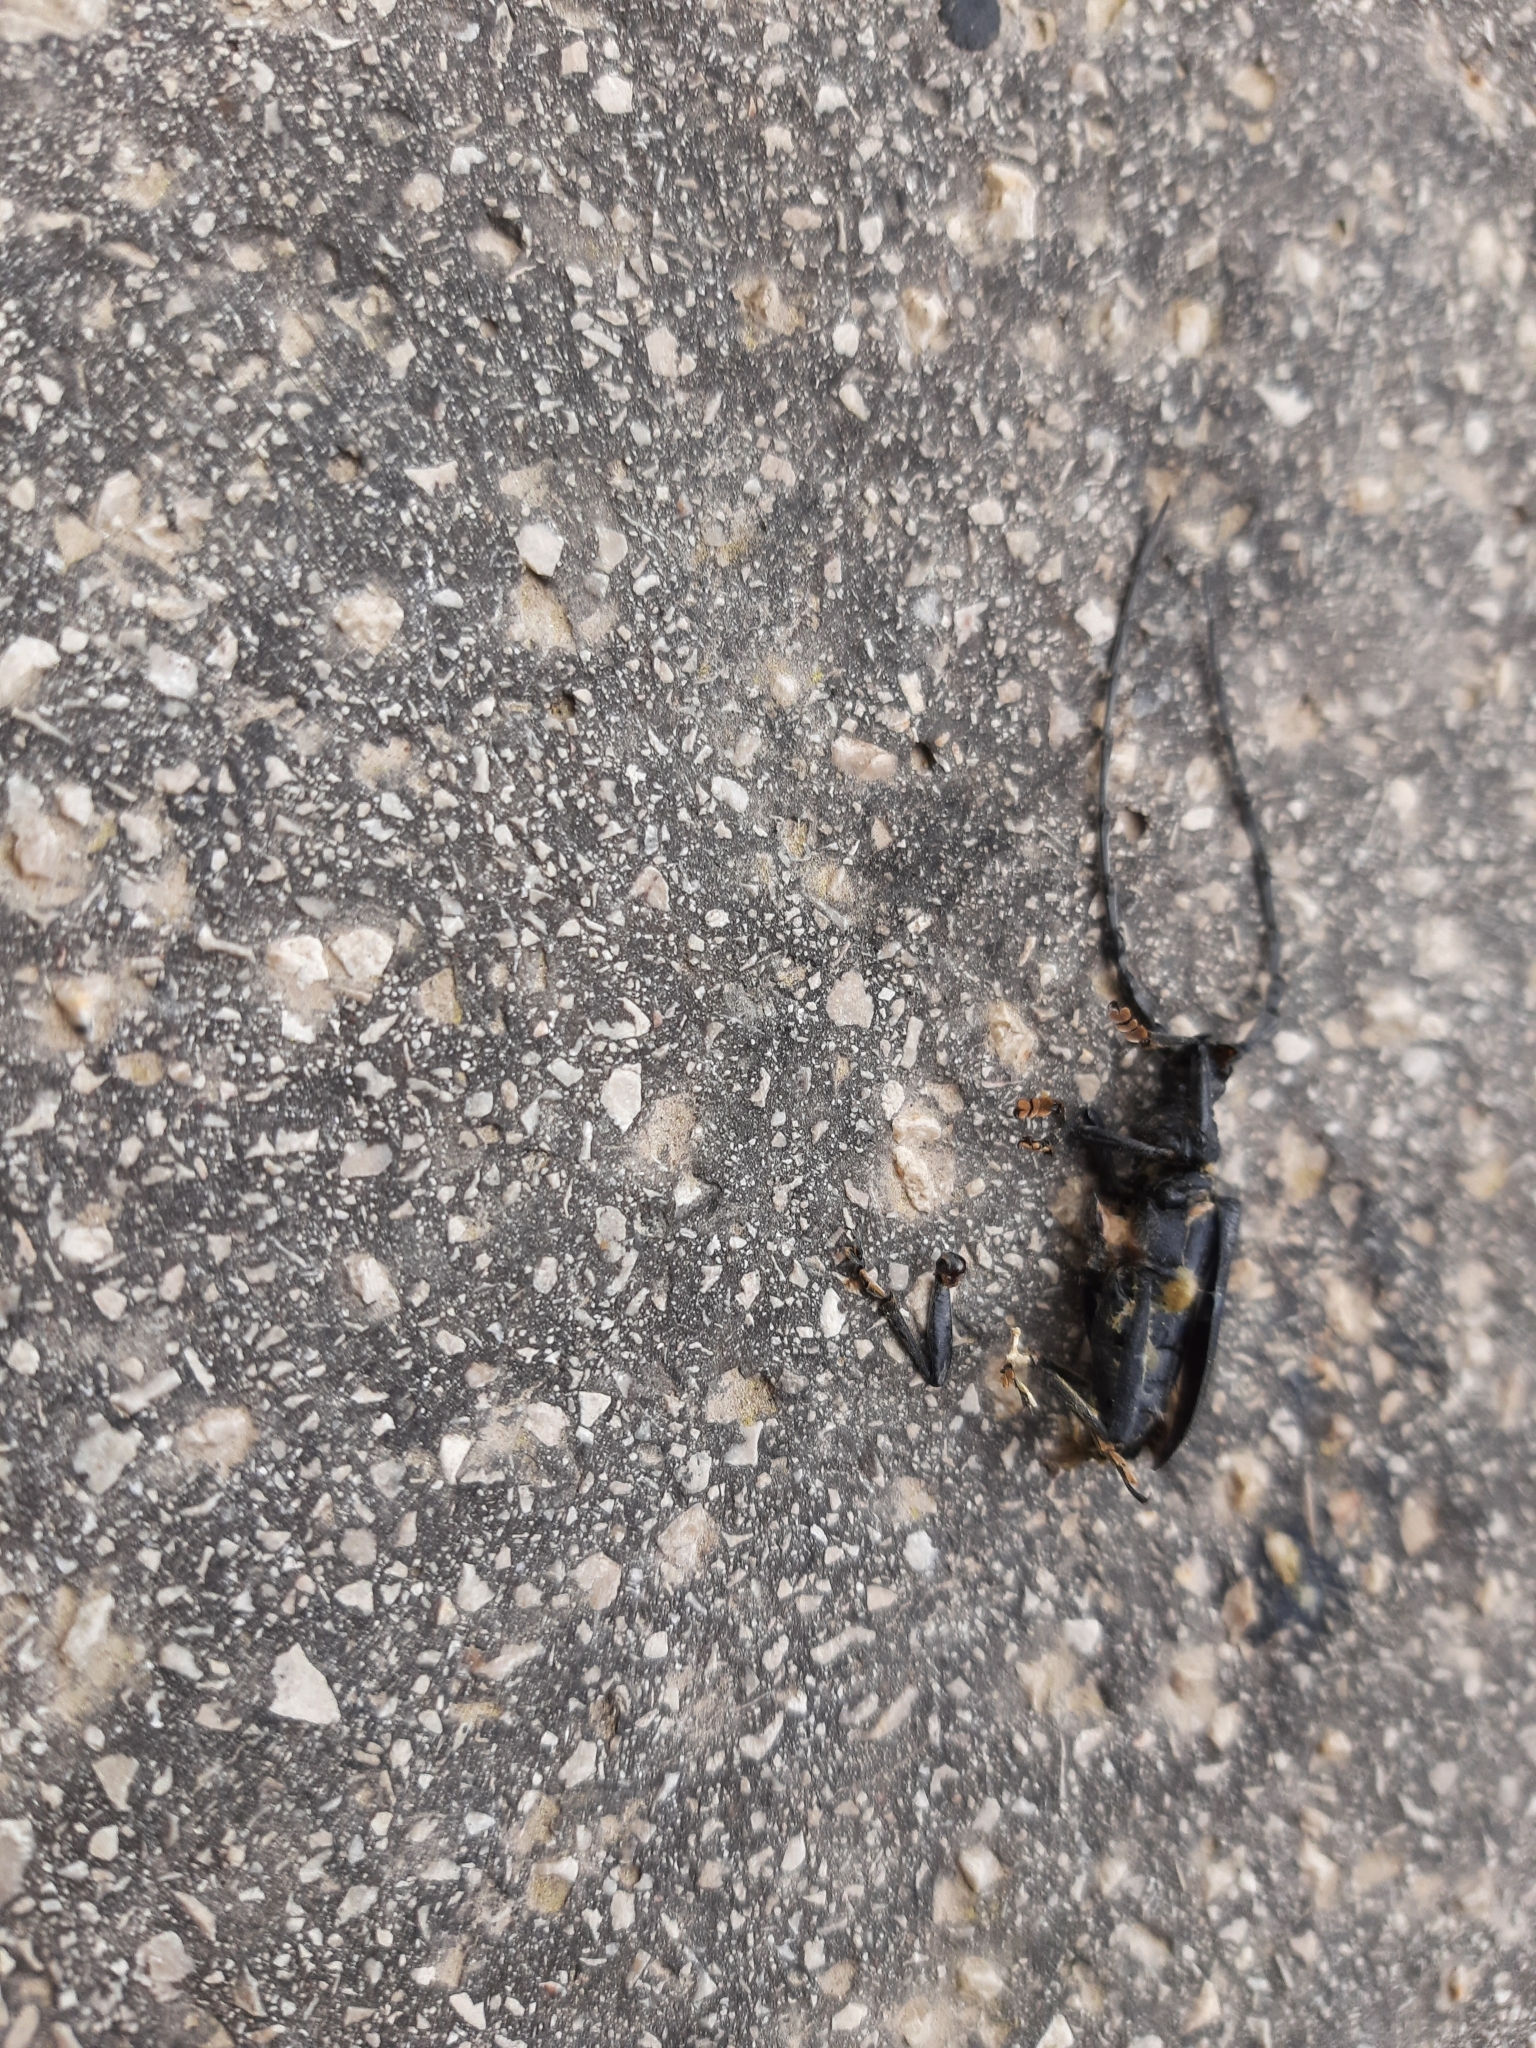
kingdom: Animalia
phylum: Arthropoda
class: Insecta
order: Coleoptera
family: Cerambycidae
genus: Cerambyx
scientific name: Cerambyx scopolii
